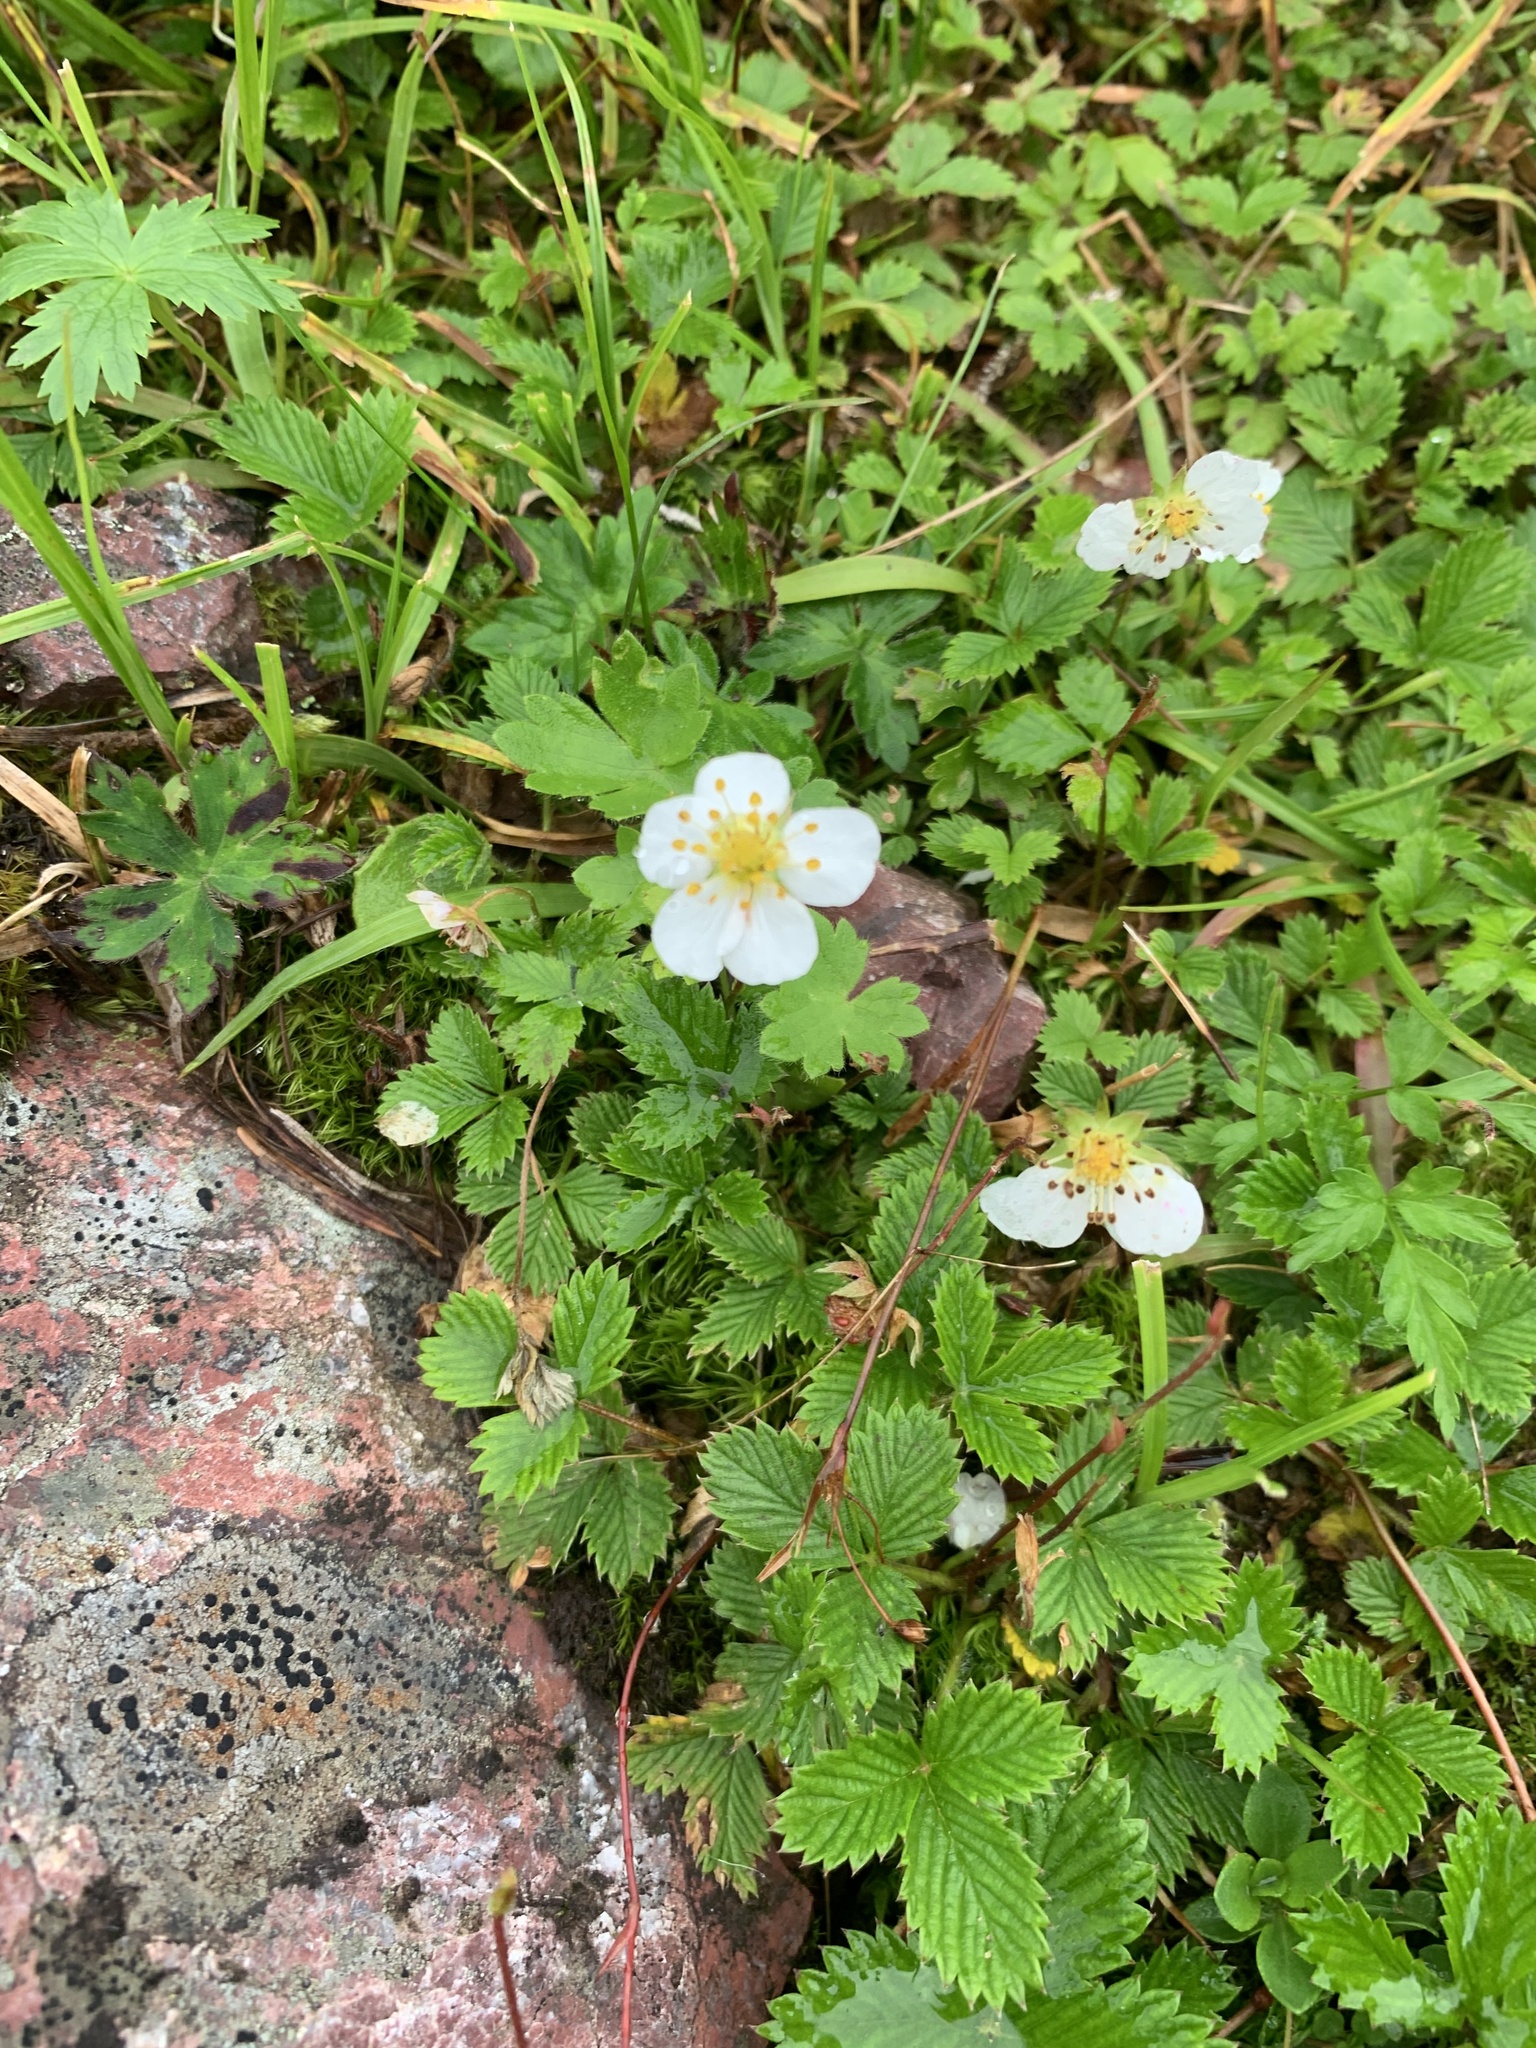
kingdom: Plantae
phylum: Tracheophyta
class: Magnoliopsida
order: Rosales
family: Rosaceae
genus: Fragaria
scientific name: Fragaria nipponica
